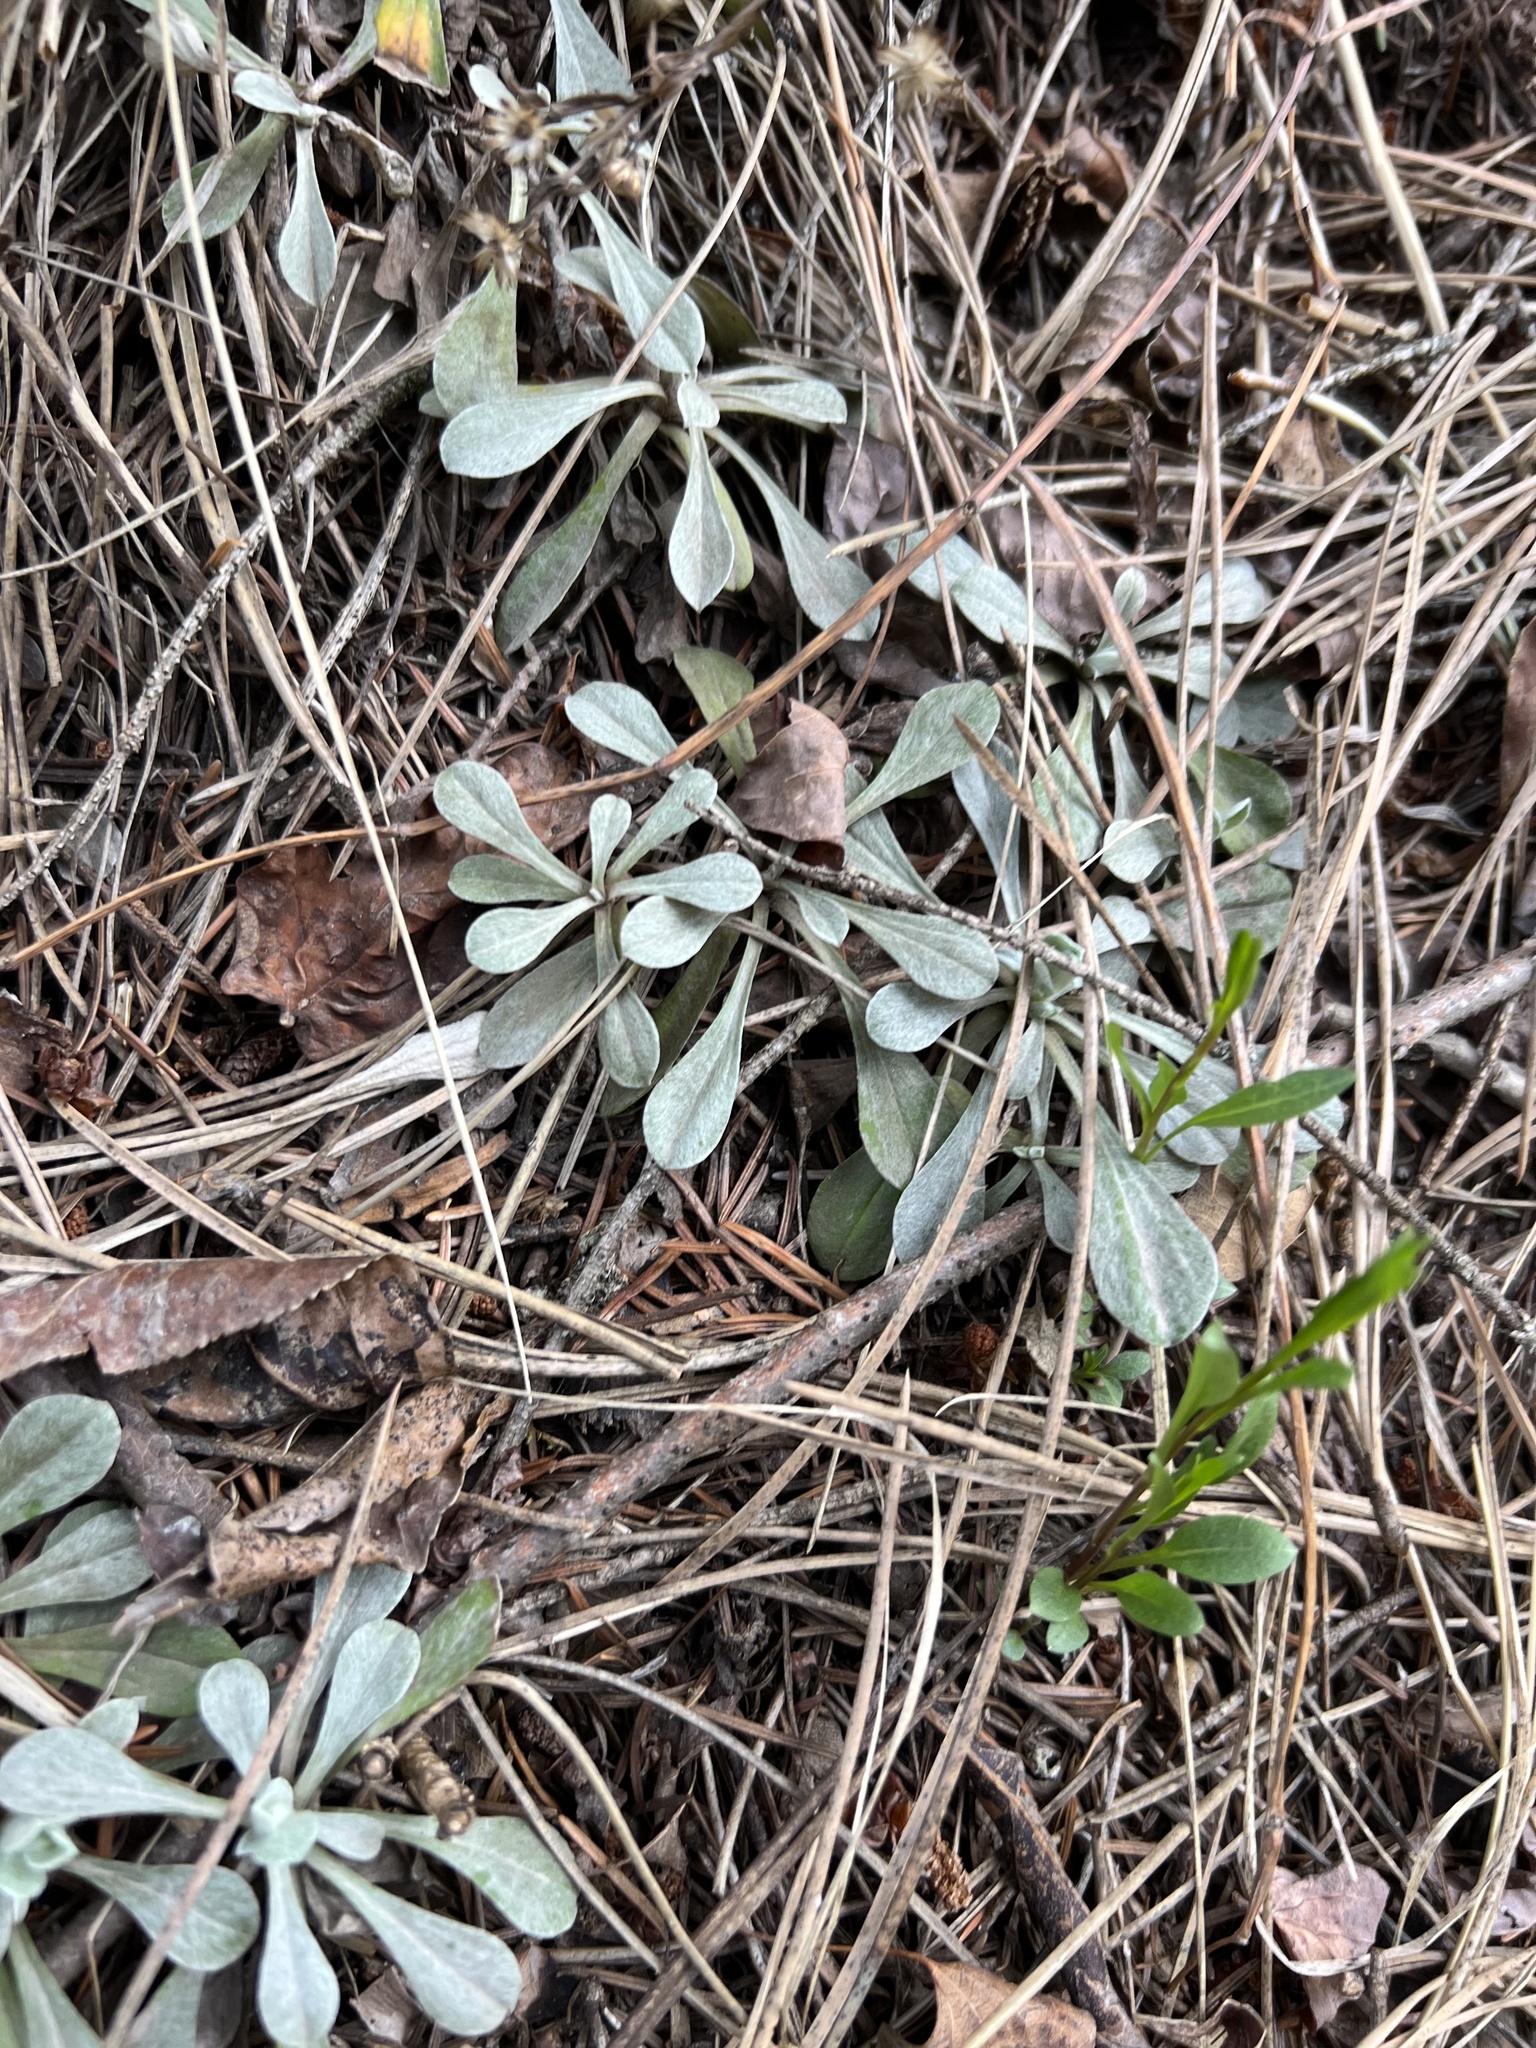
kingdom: Plantae
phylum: Tracheophyta
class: Magnoliopsida
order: Asterales
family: Asteraceae
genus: Antennaria
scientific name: Antennaria
